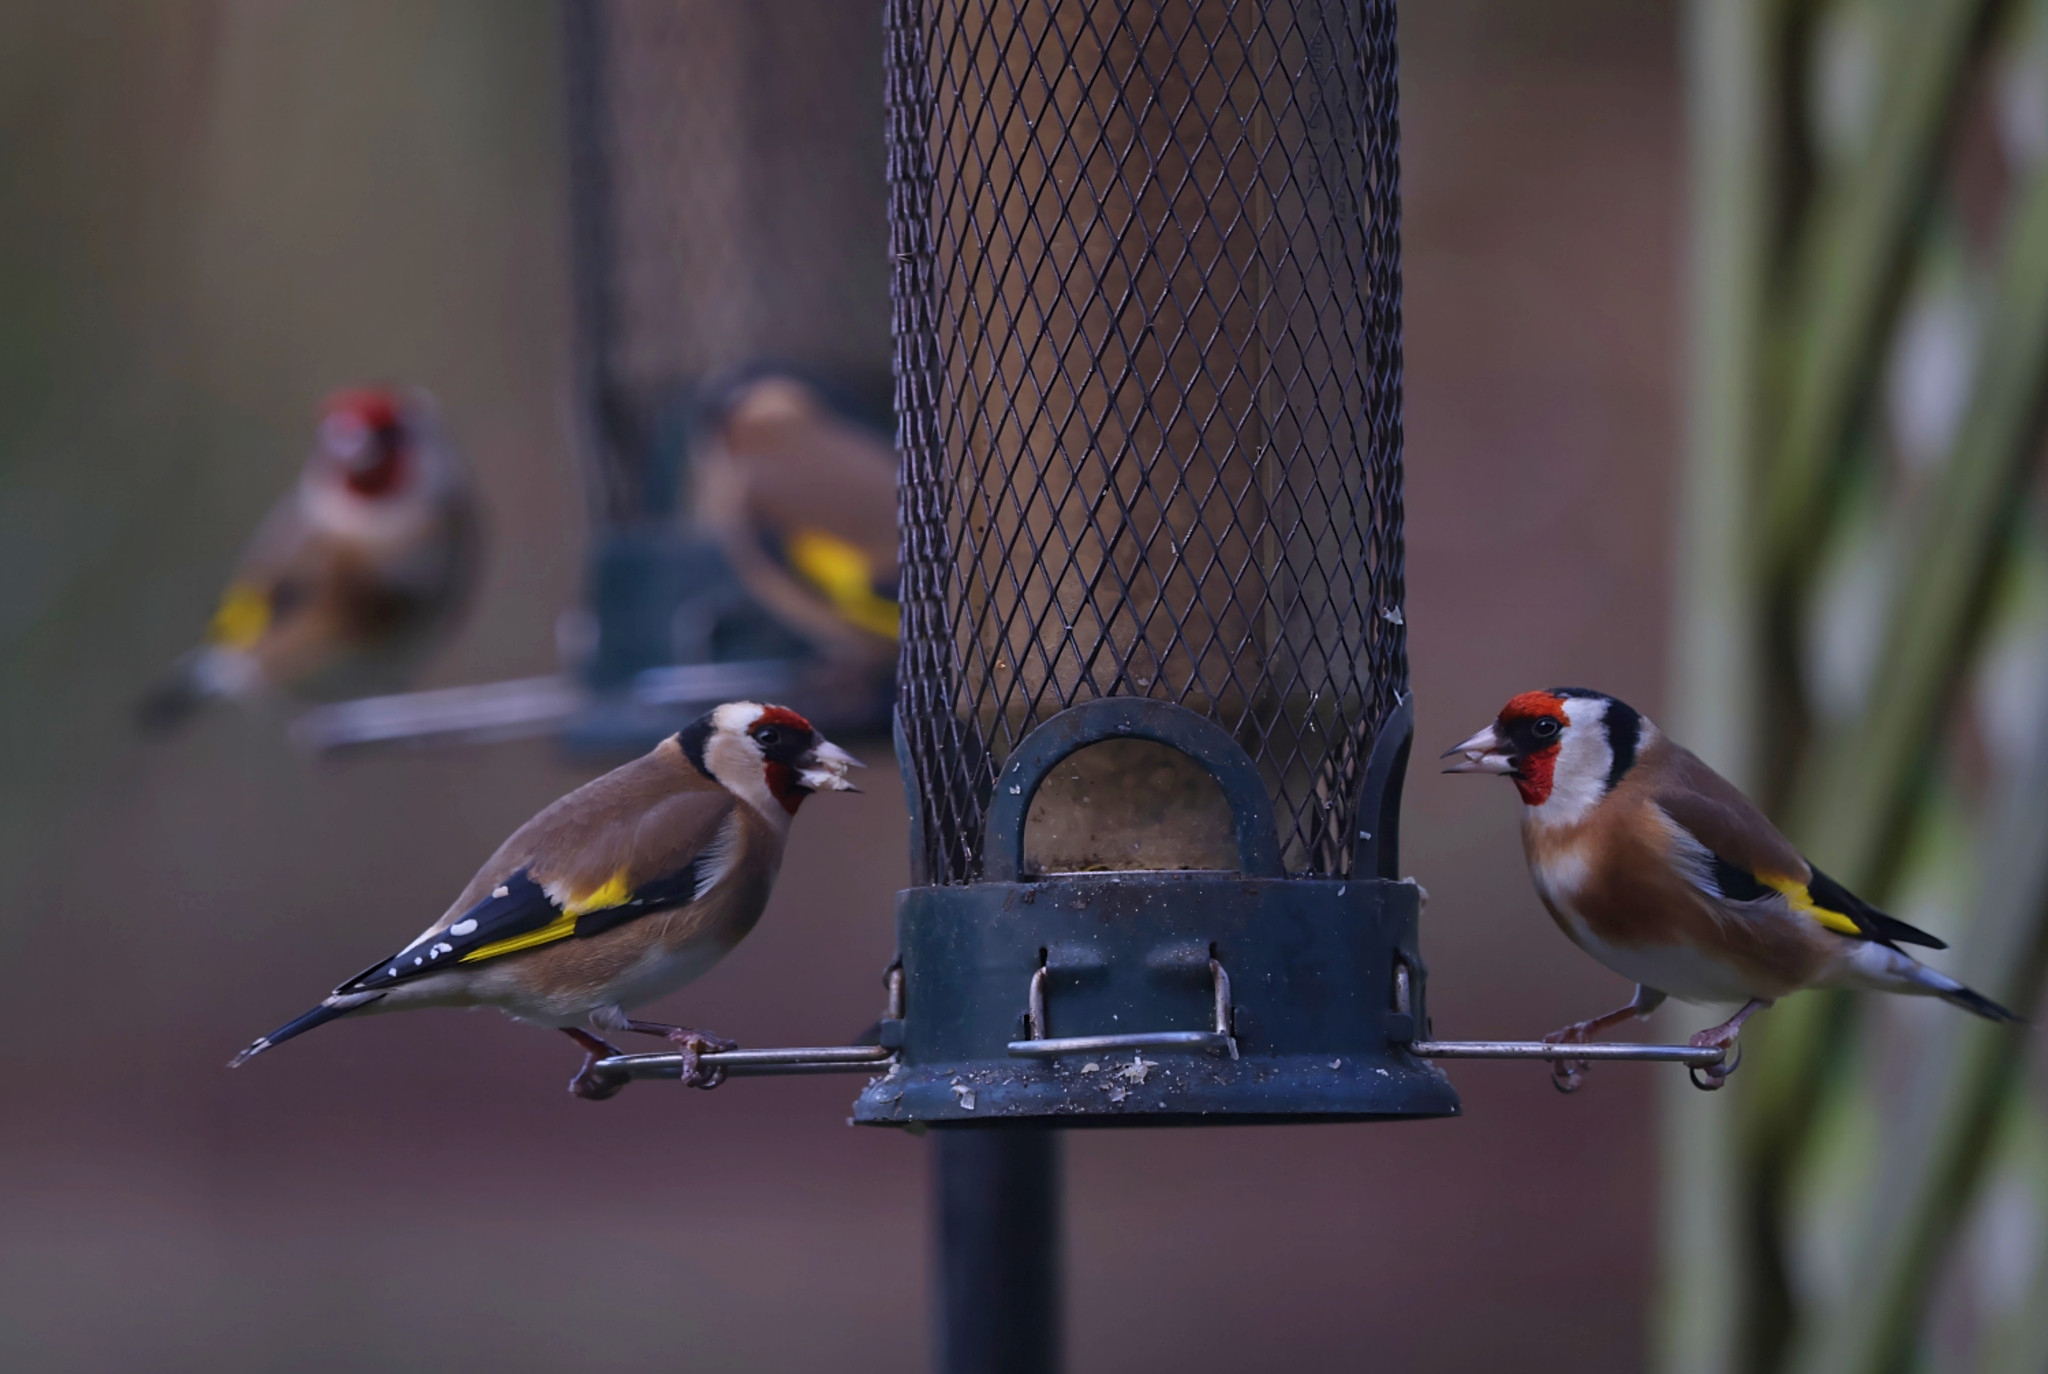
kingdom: Animalia
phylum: Chordata
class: Aves
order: Passeriformes
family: Fringillidae
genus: Carduelis
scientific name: Carduelis carduelis
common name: European goldfinch
